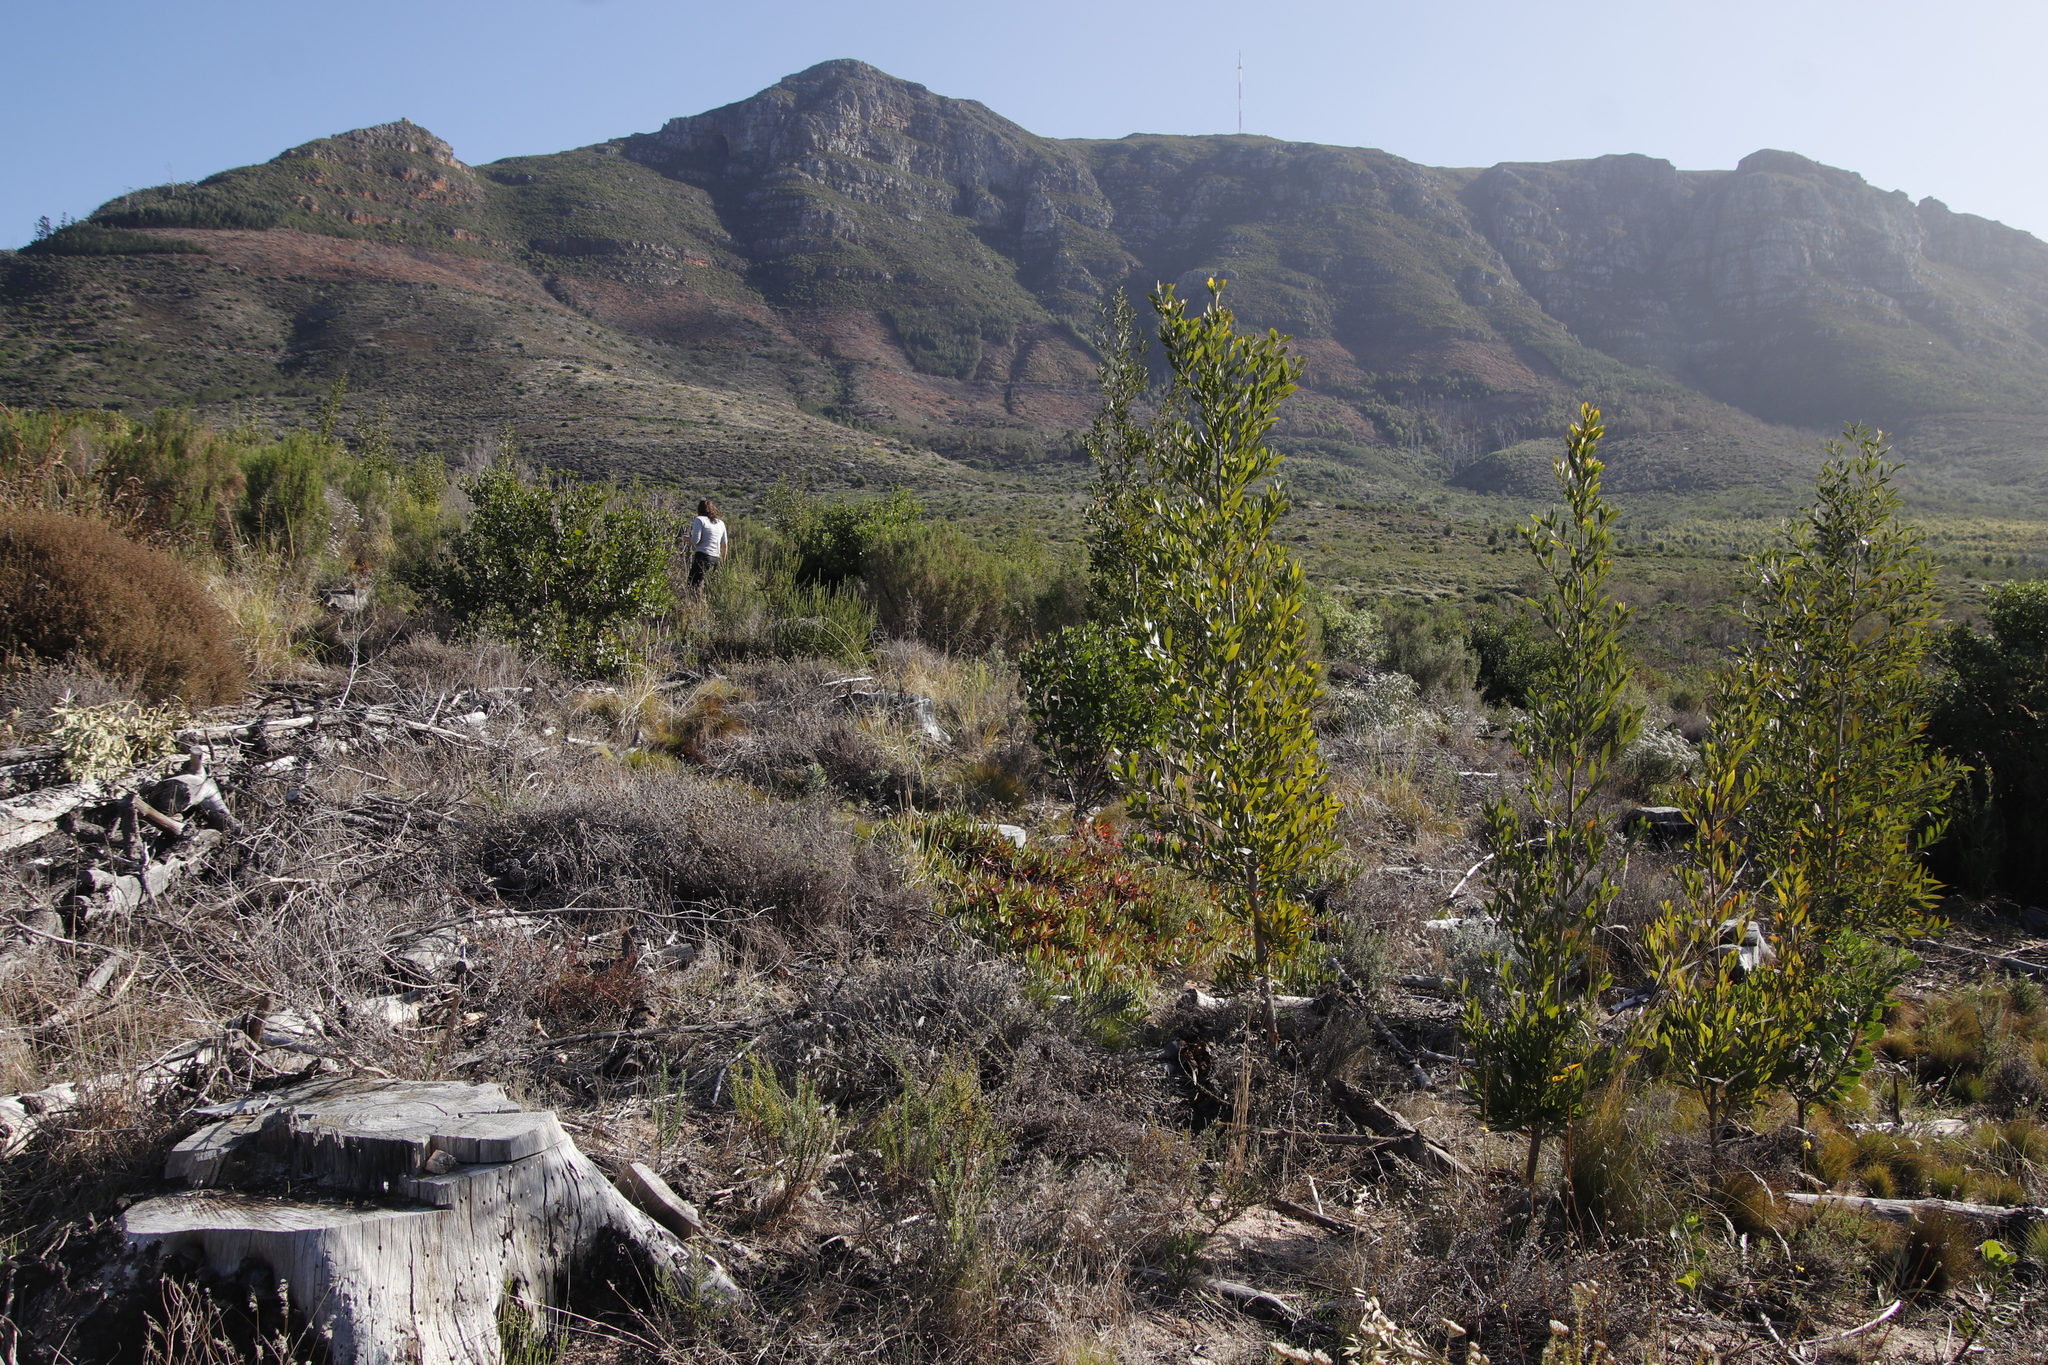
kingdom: Plantae
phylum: Tracheophyta
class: Magnoliopsida
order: Fabales
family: Fabaceae
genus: Acacia
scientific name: Acacia melanoxylon
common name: Blackwood
